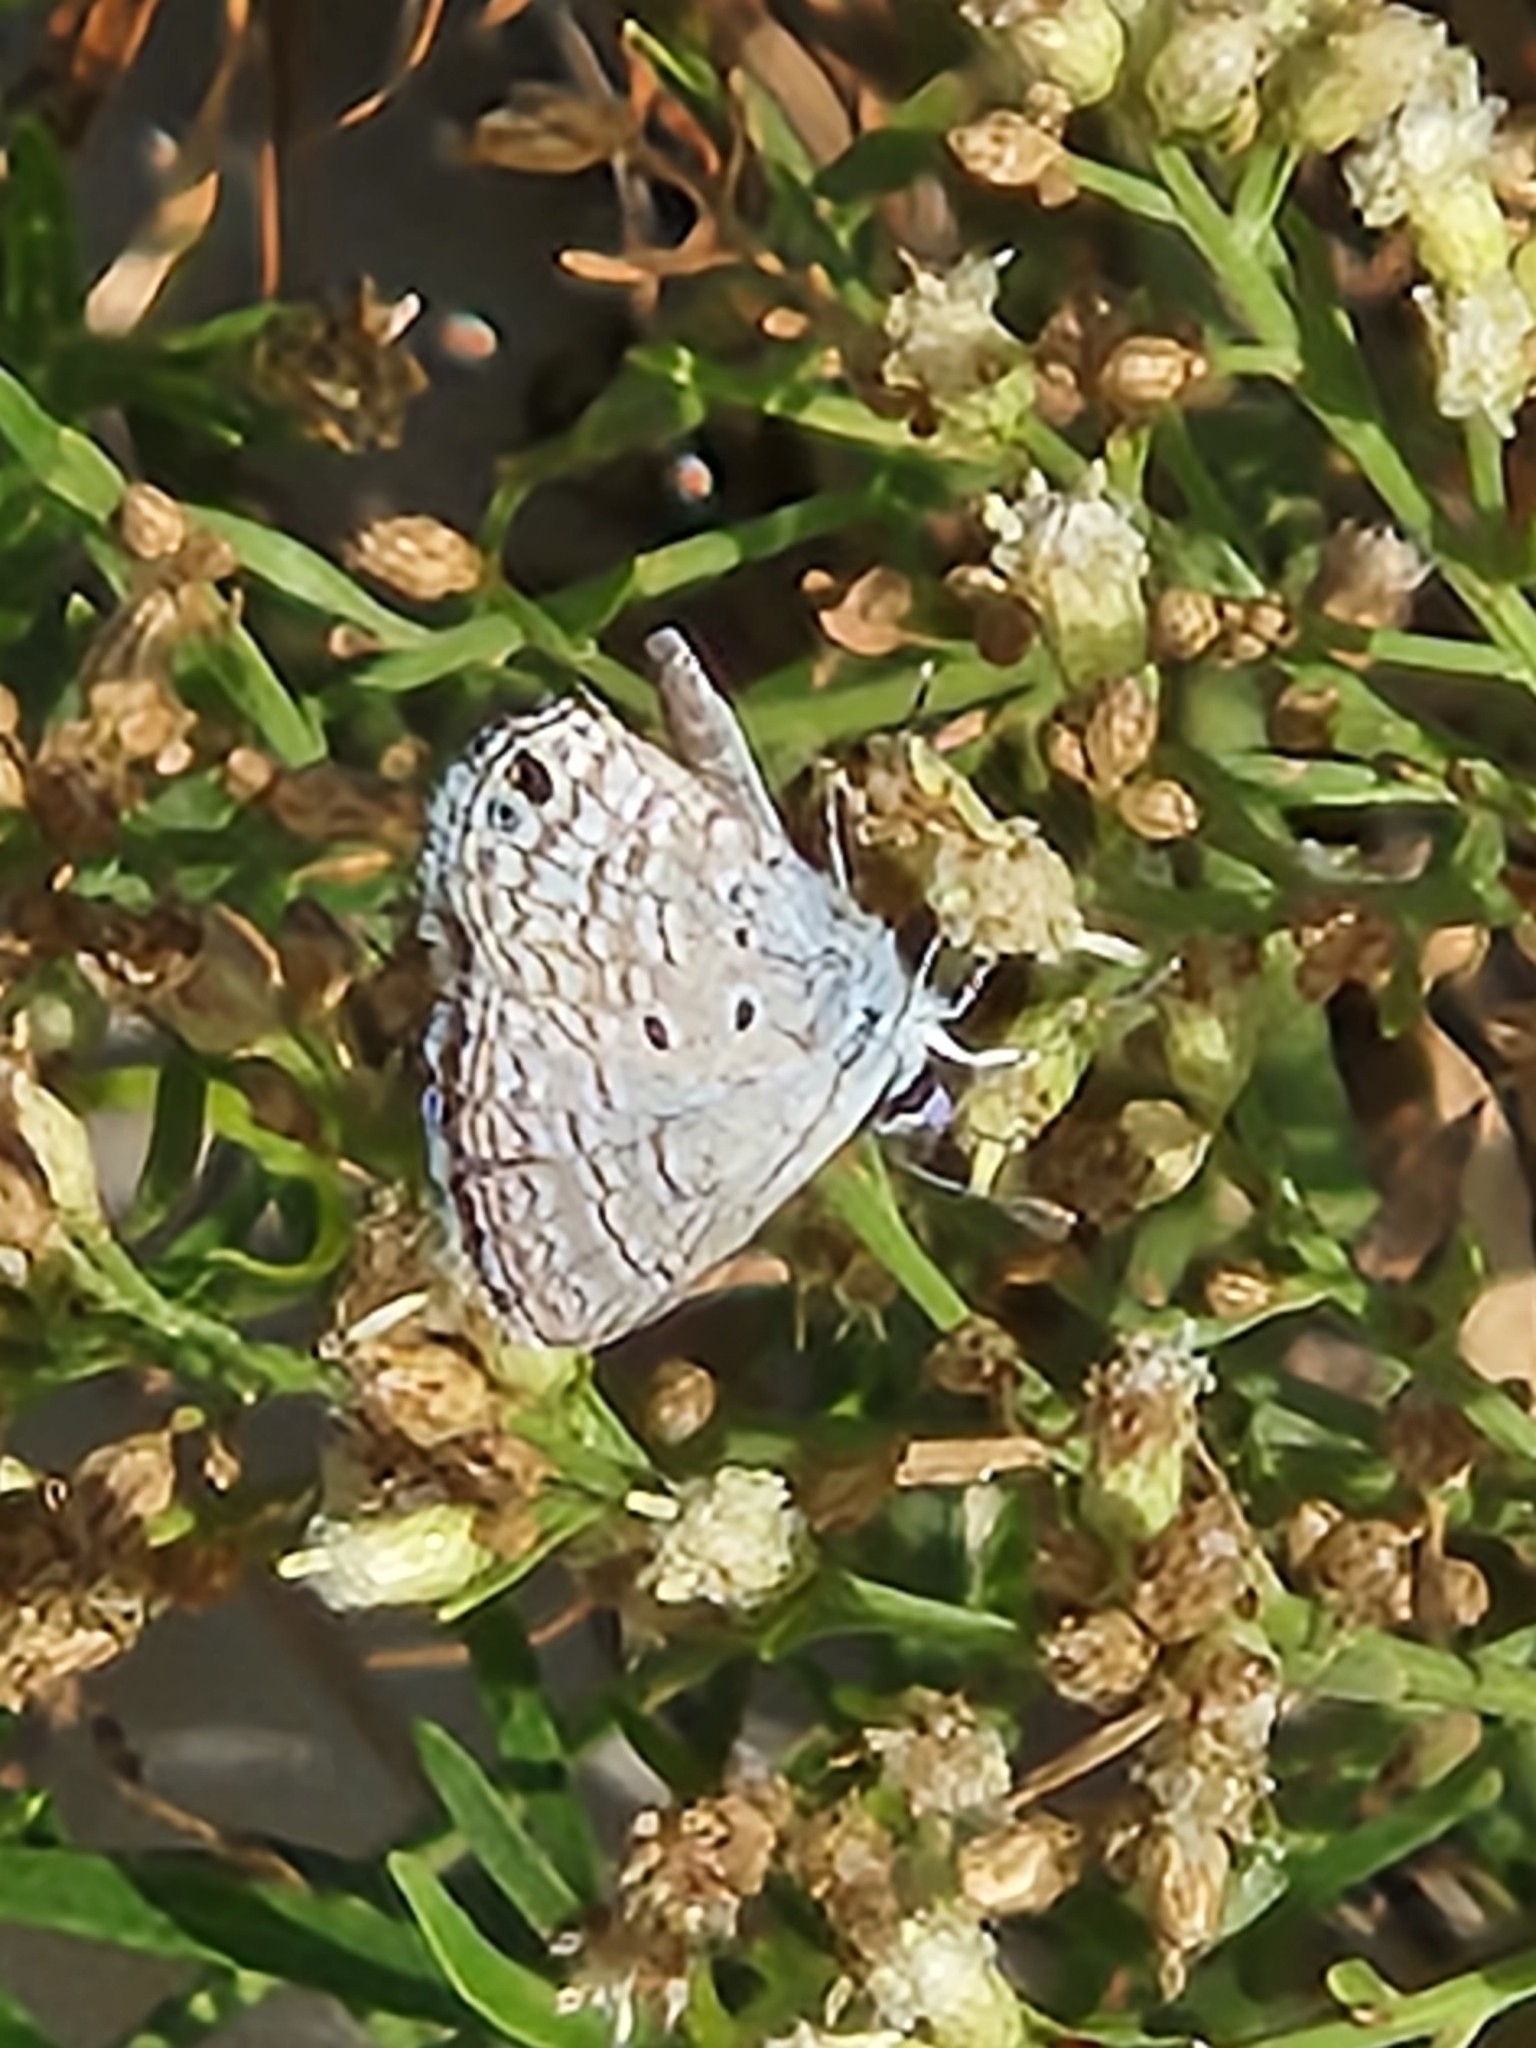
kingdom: Animalia
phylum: Arthropoda
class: Insecta
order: Lepidoptera
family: Lycaenidae
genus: Hemiargus
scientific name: Hemiargus ceraunus
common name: Ceraunus blue
